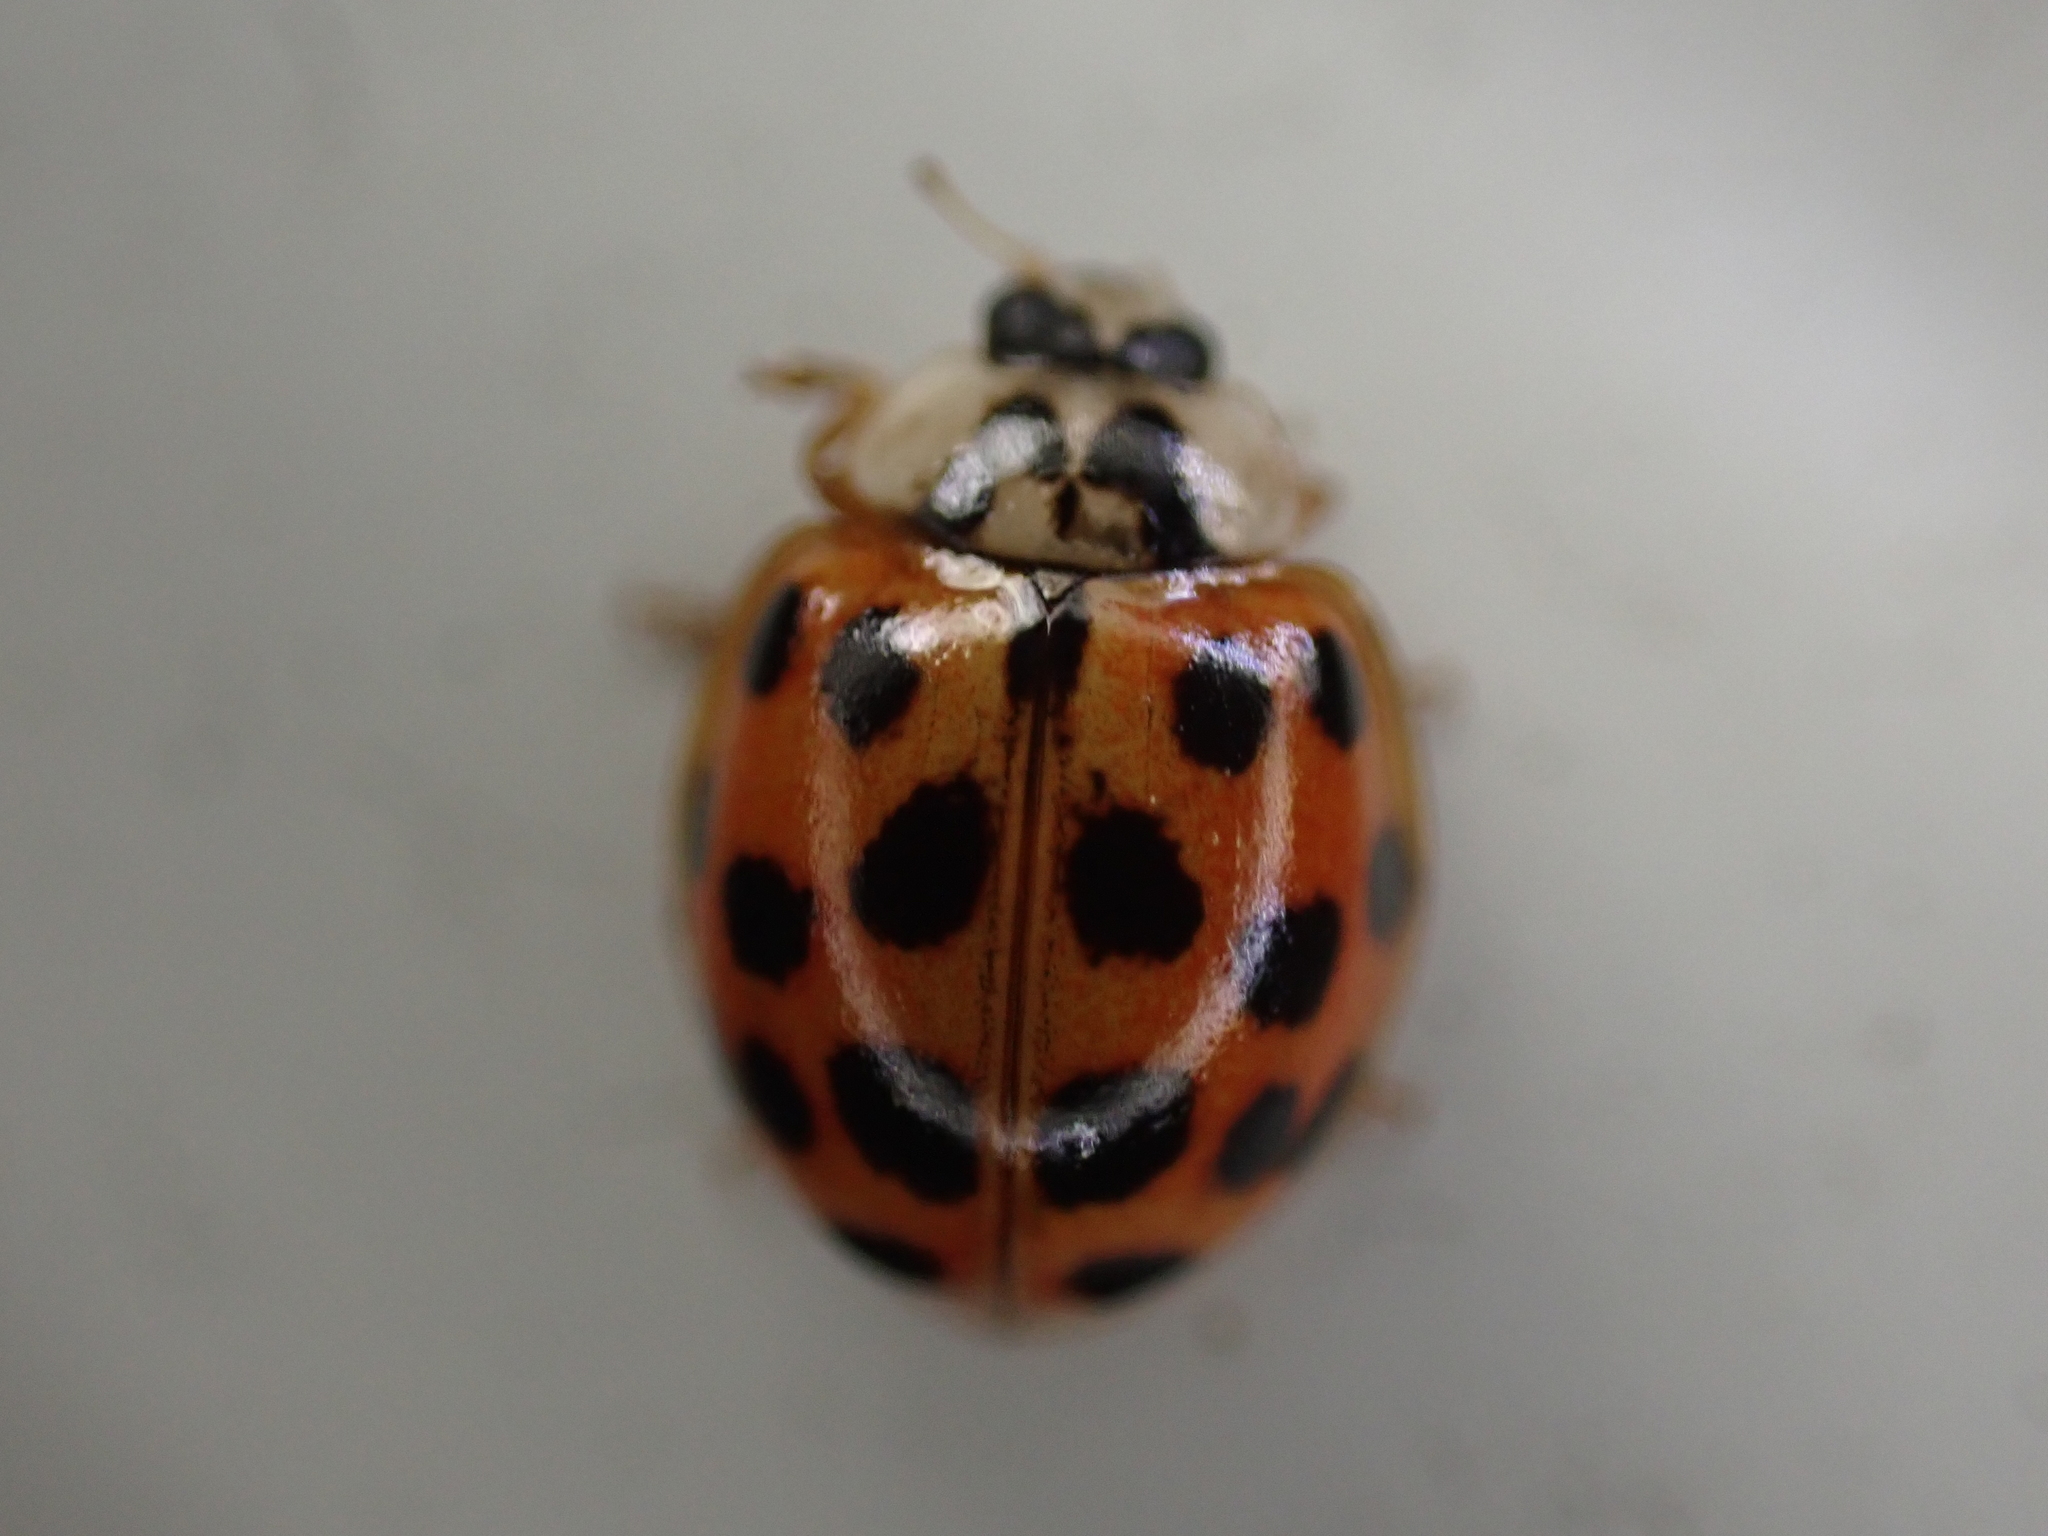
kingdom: Animalia
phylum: Arthropoda
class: Insecta
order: Coleoptera
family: Coccinellidae
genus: Harmonia
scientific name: Harmonia axyridis
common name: Harlequin ladybird
